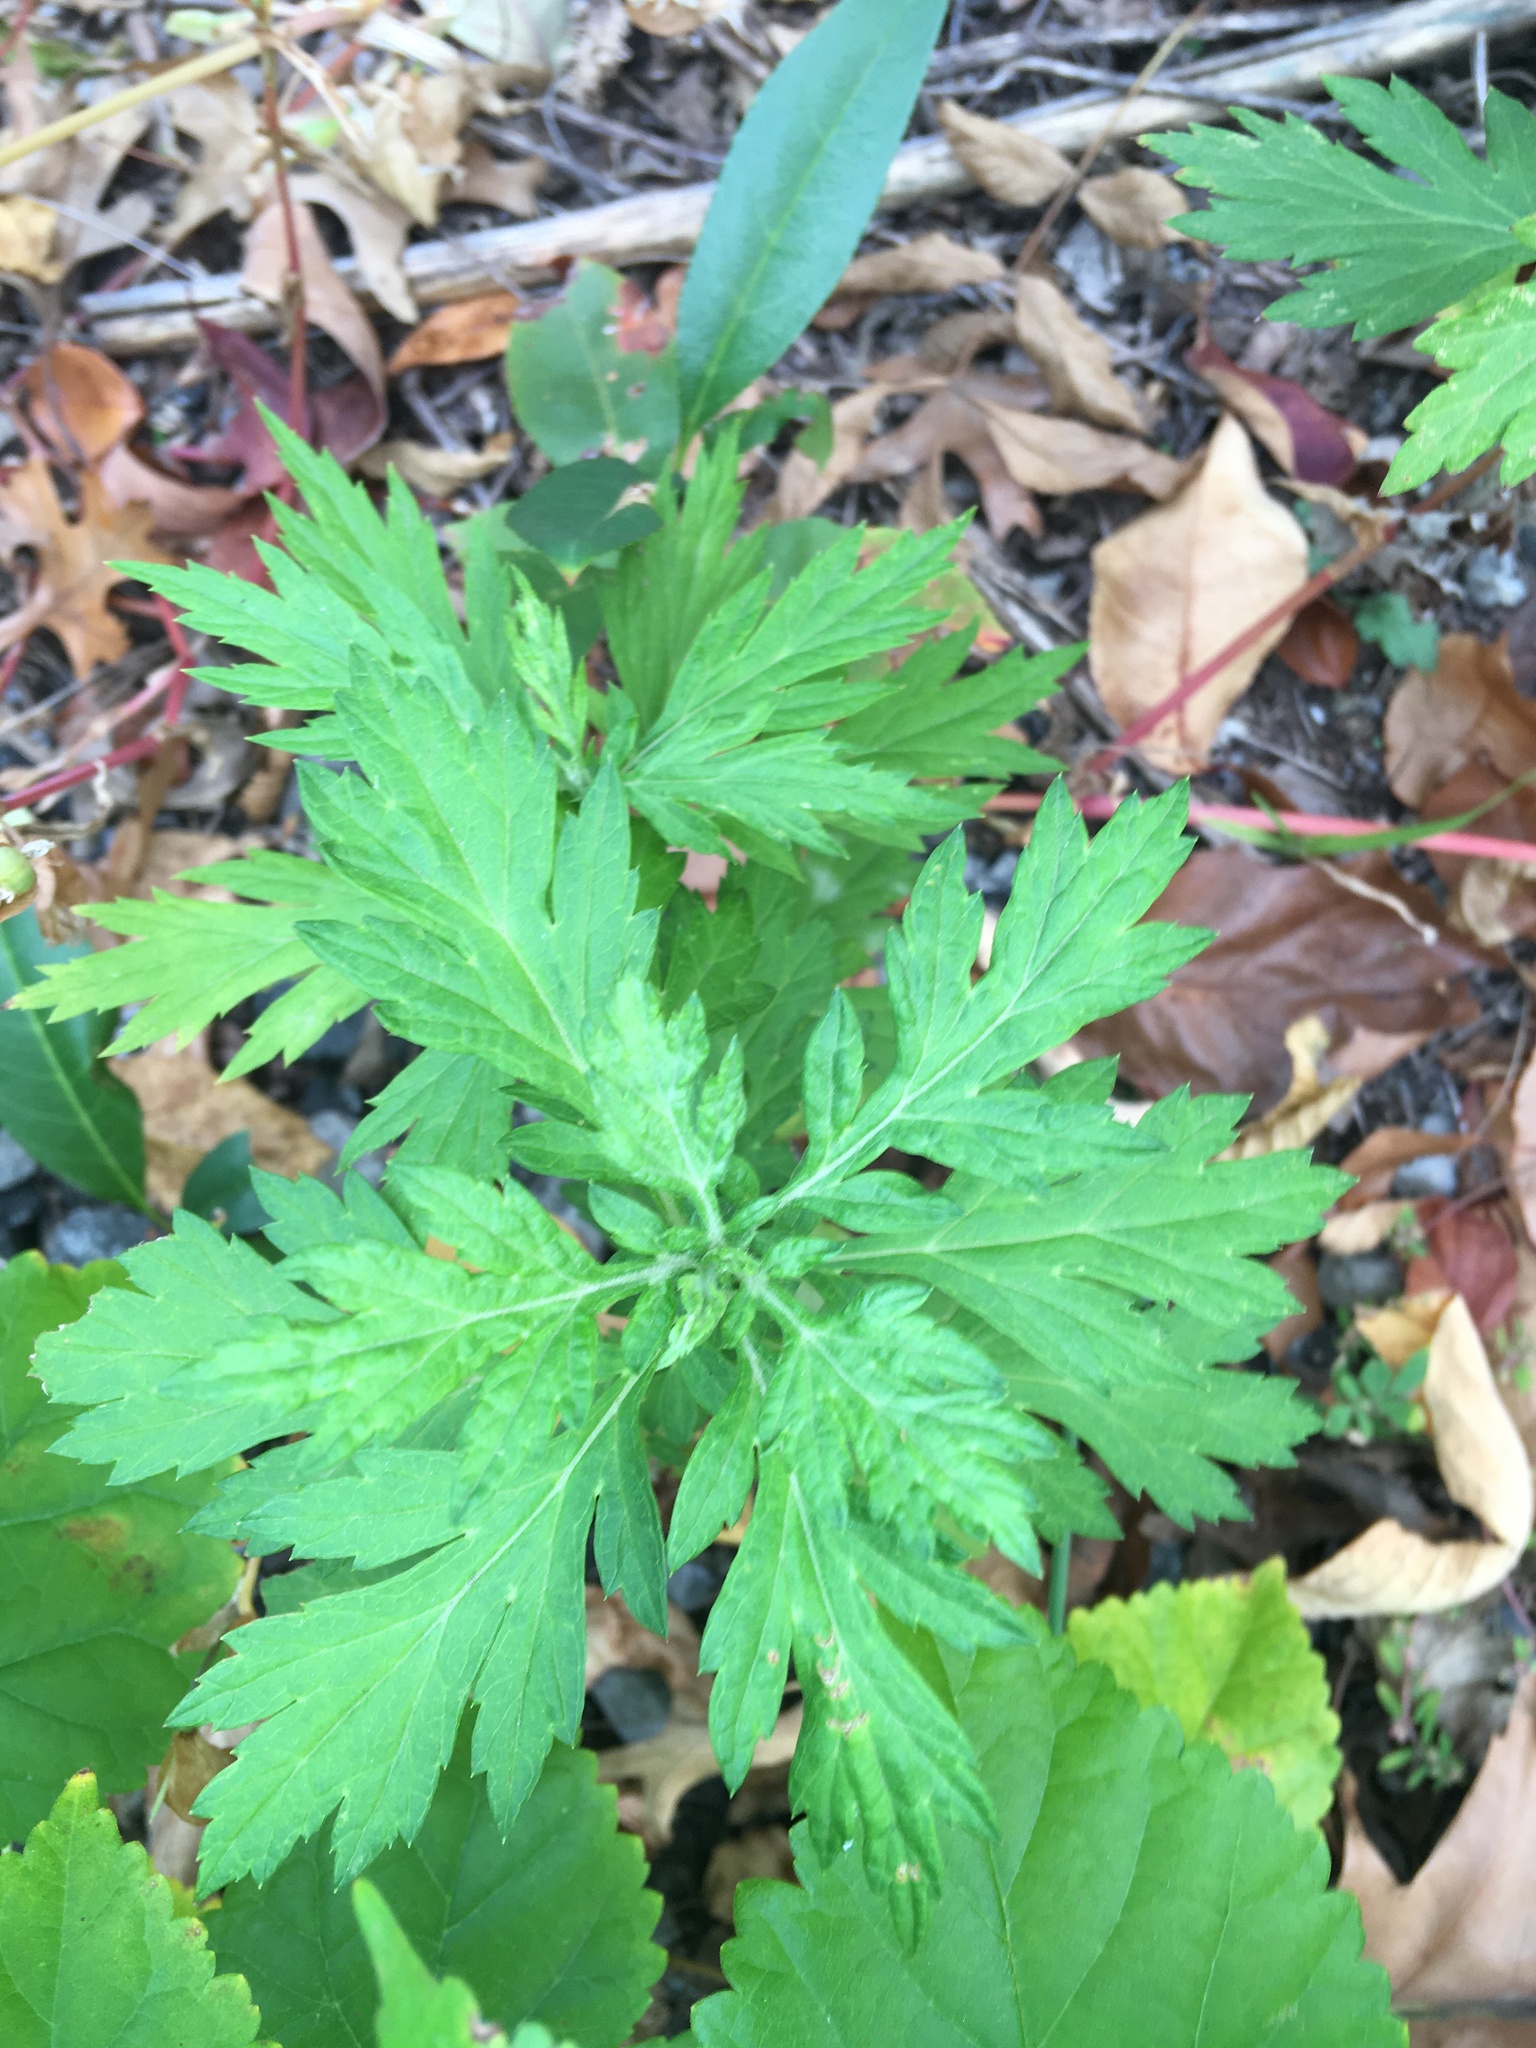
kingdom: Plantae
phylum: Tracheophyta
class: Magnoliopsida
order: Asterales
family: Asteraceae
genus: Artemisia
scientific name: Artemisia vulgaris
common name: Mugwort
